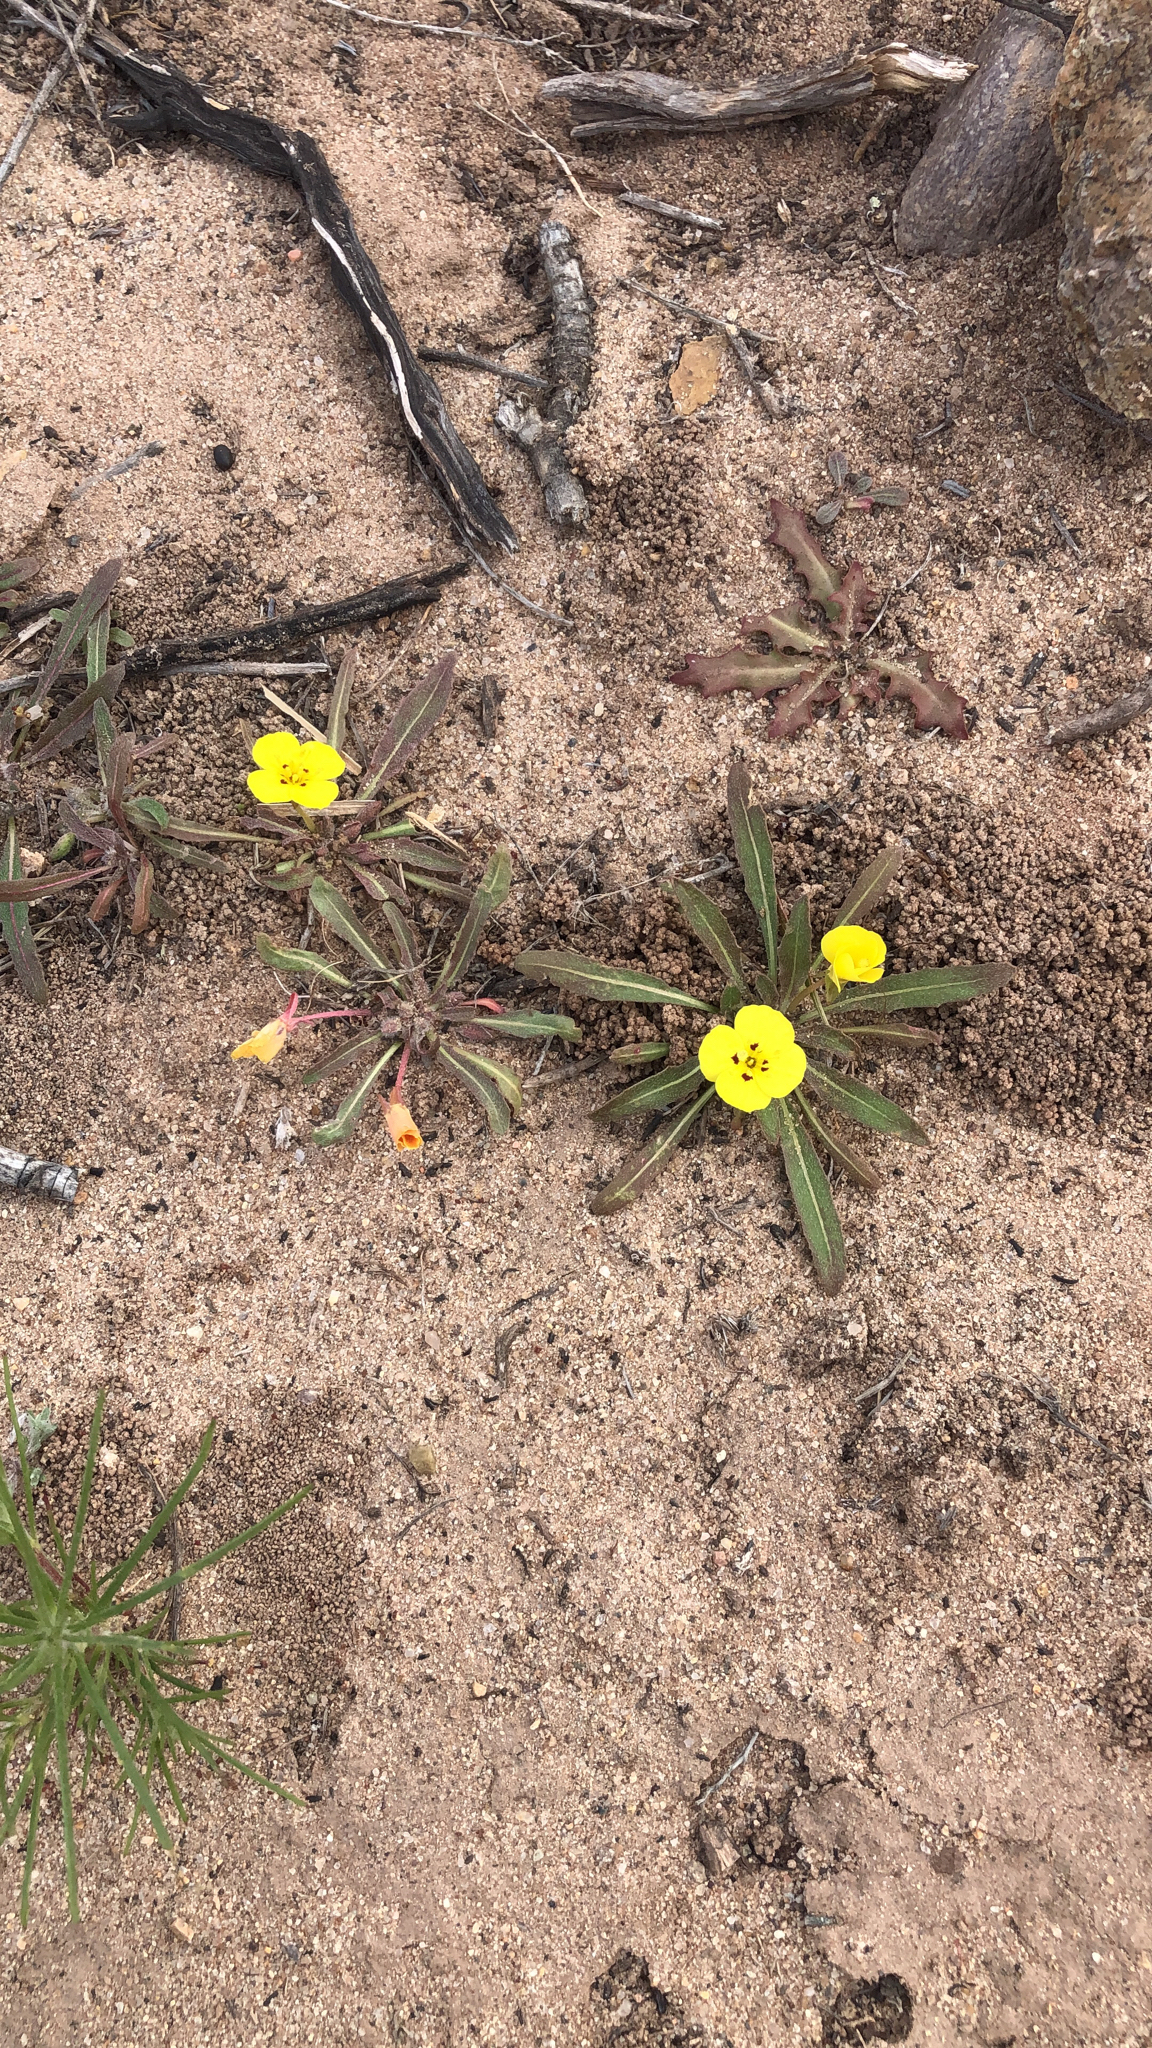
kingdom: Plantae
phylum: Tracheophyta
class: Magnoliopsida
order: Myrtales
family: Onagraceae
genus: Camissoniopsis
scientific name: Camissoniopsis bistorta
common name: Southern suncup
